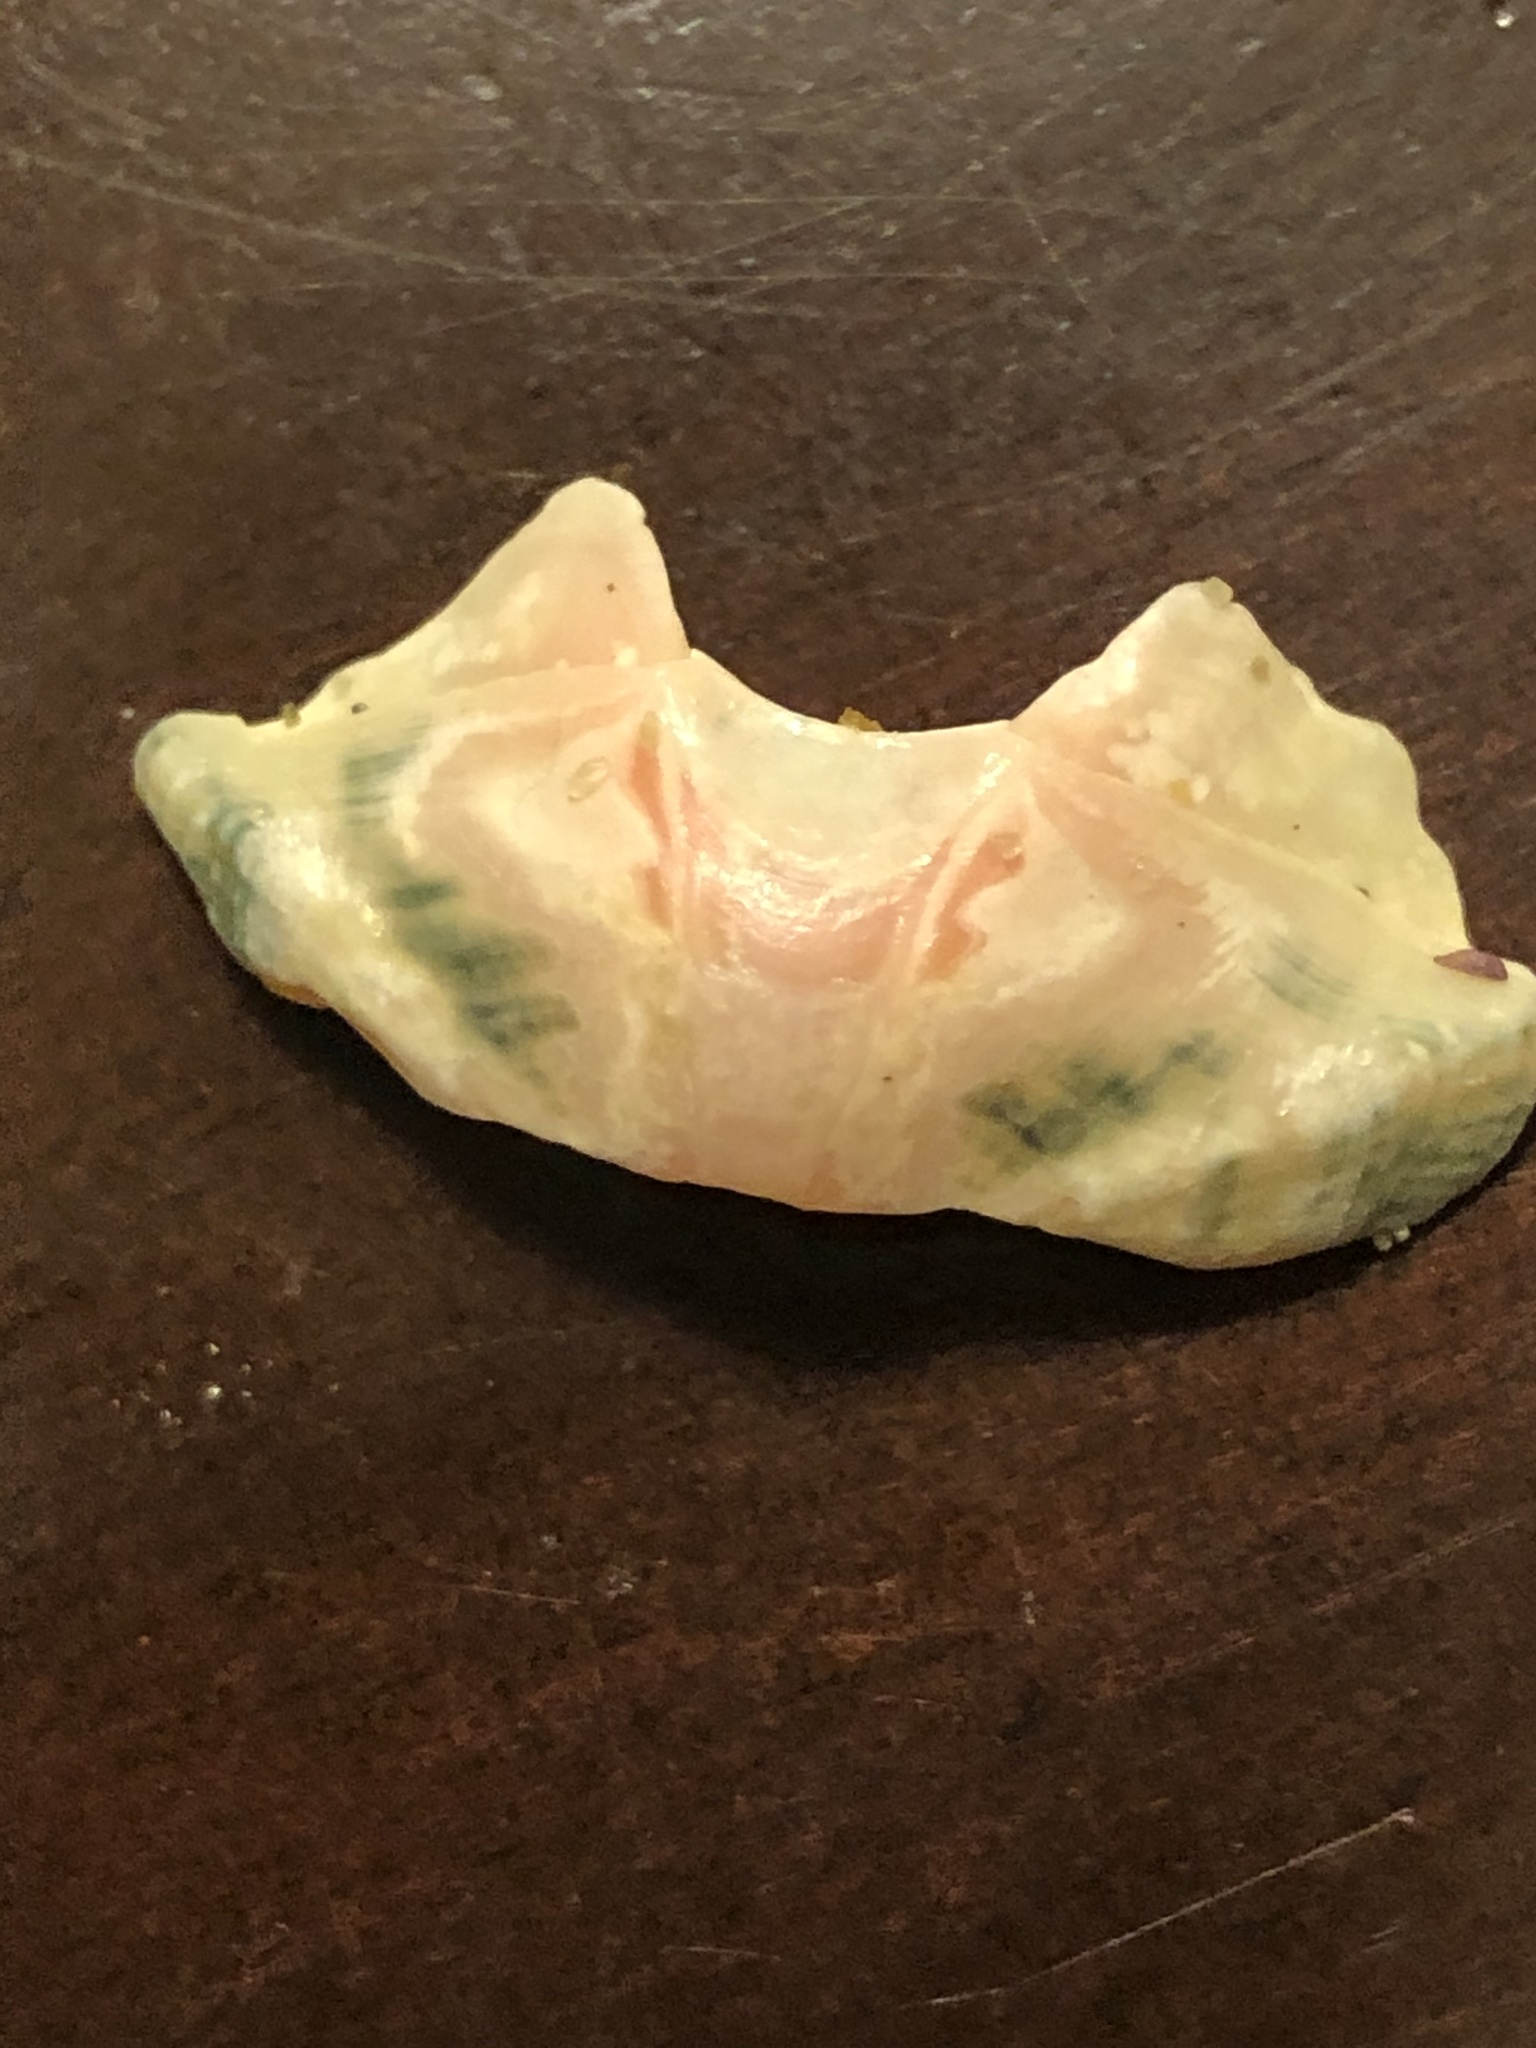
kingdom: Animalia
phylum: Mollusca
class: Polyplacophora
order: Chitonida
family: Ischnochitonidae
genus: Stenoplax
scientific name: Stenoplax conspicua
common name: Conspicuous chiton
